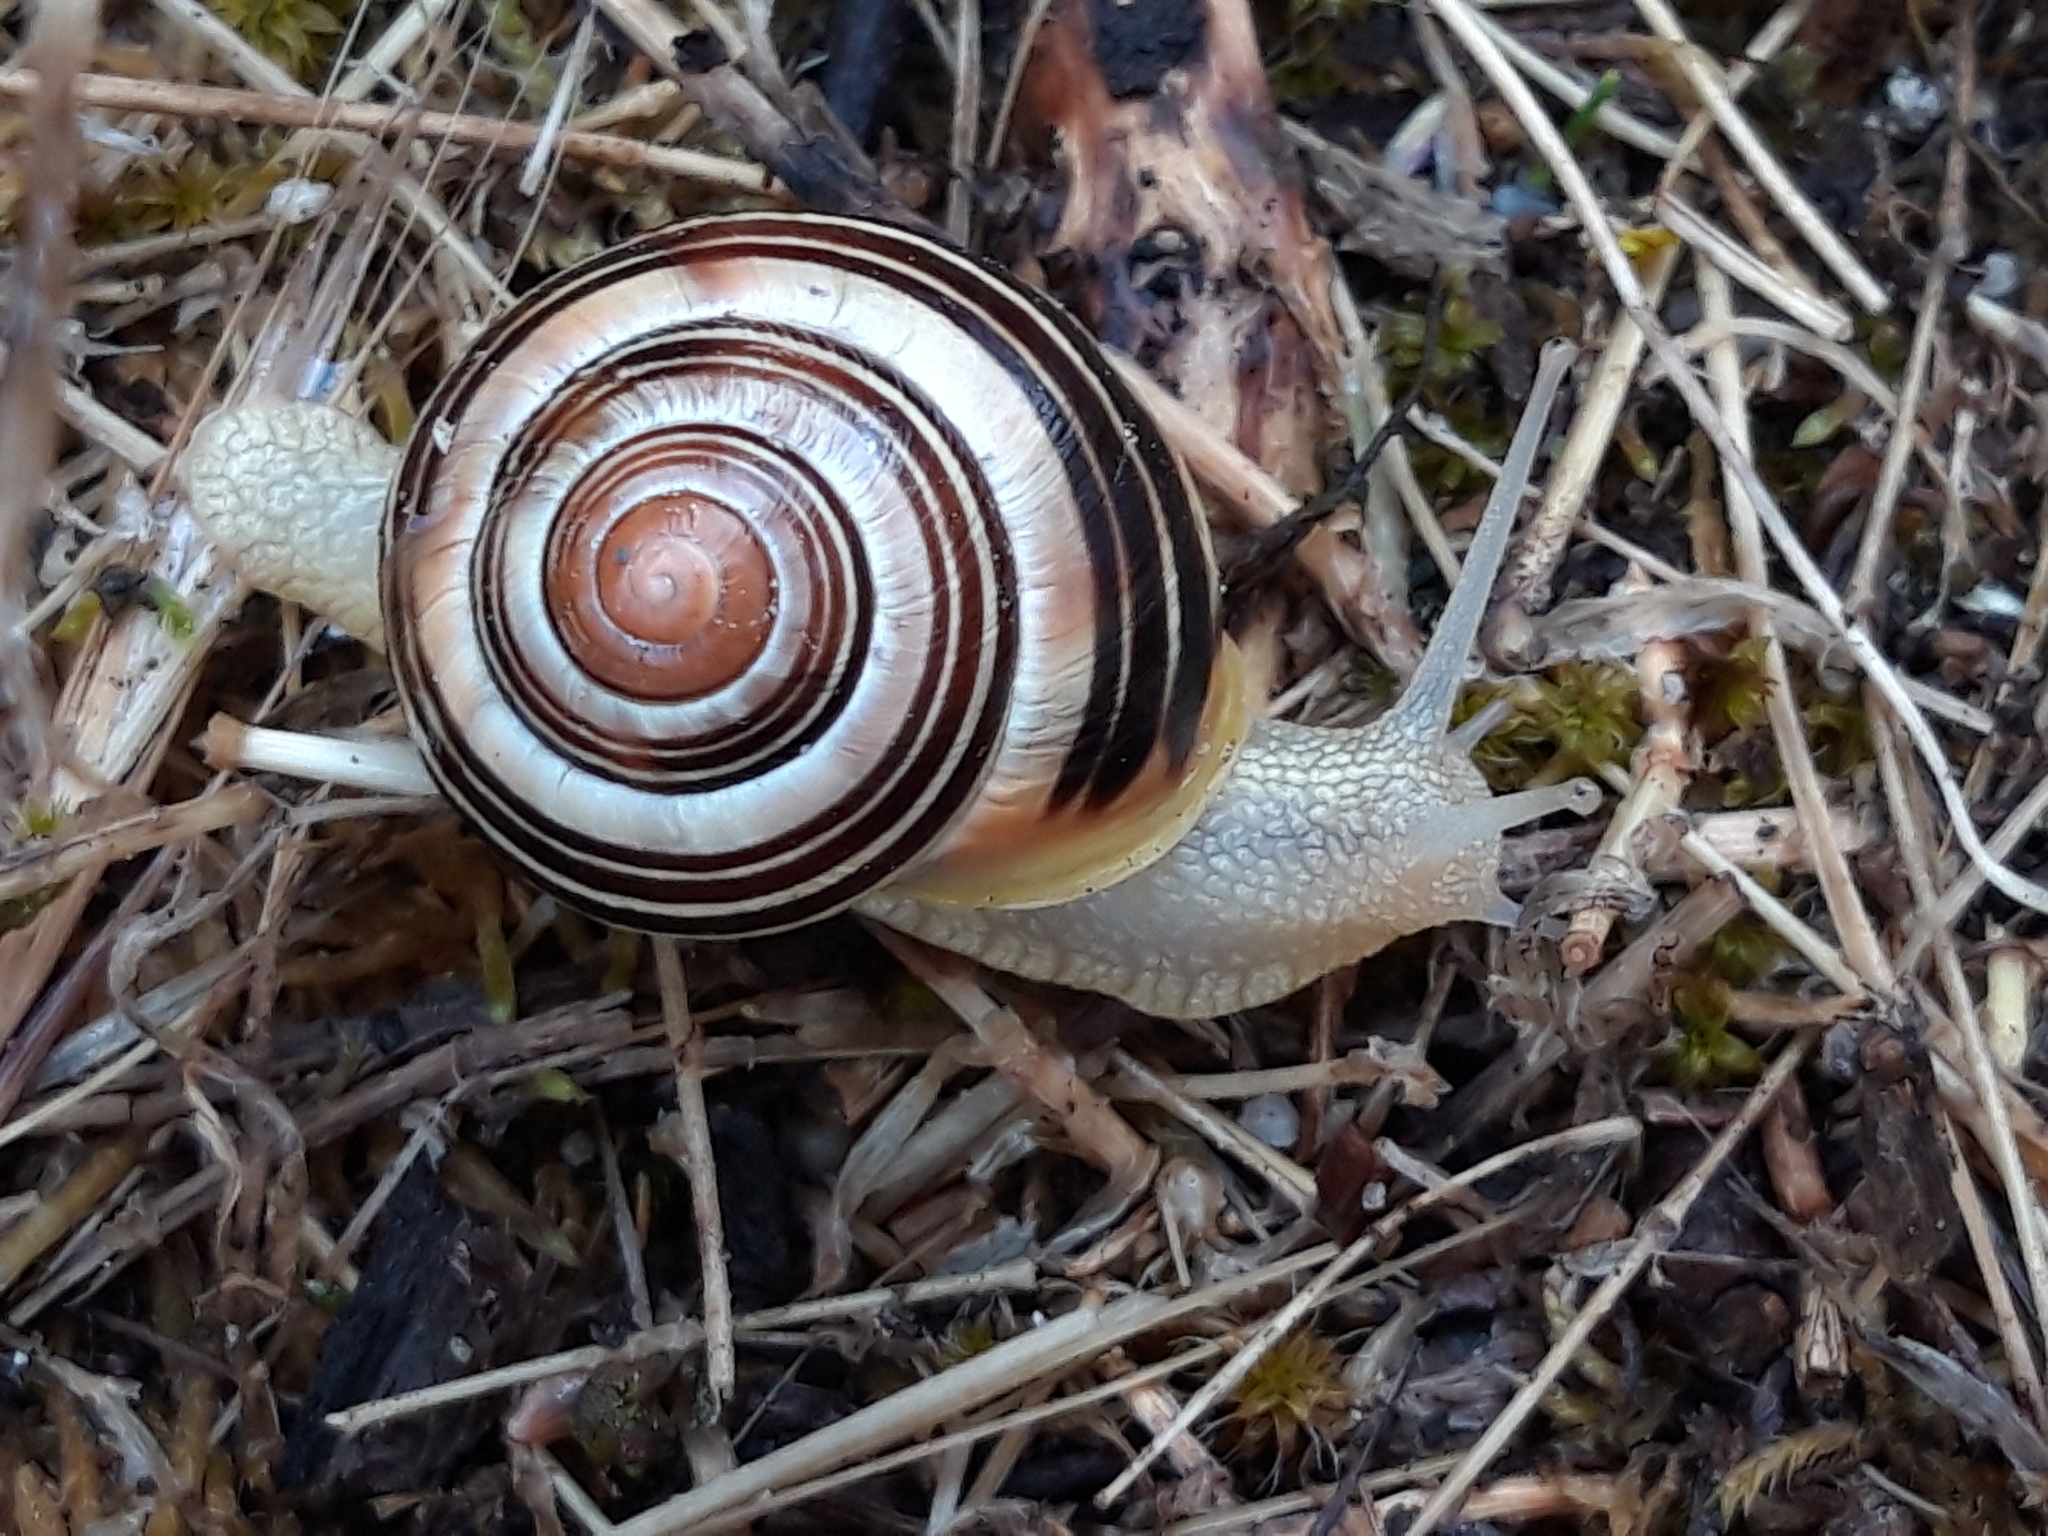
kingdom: Animalia
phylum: Mollusca
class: Gastropoda
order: Stylommatophora
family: Helicidae
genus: Cepaea
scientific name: Cepaea nemoralis
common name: Grovesnail
